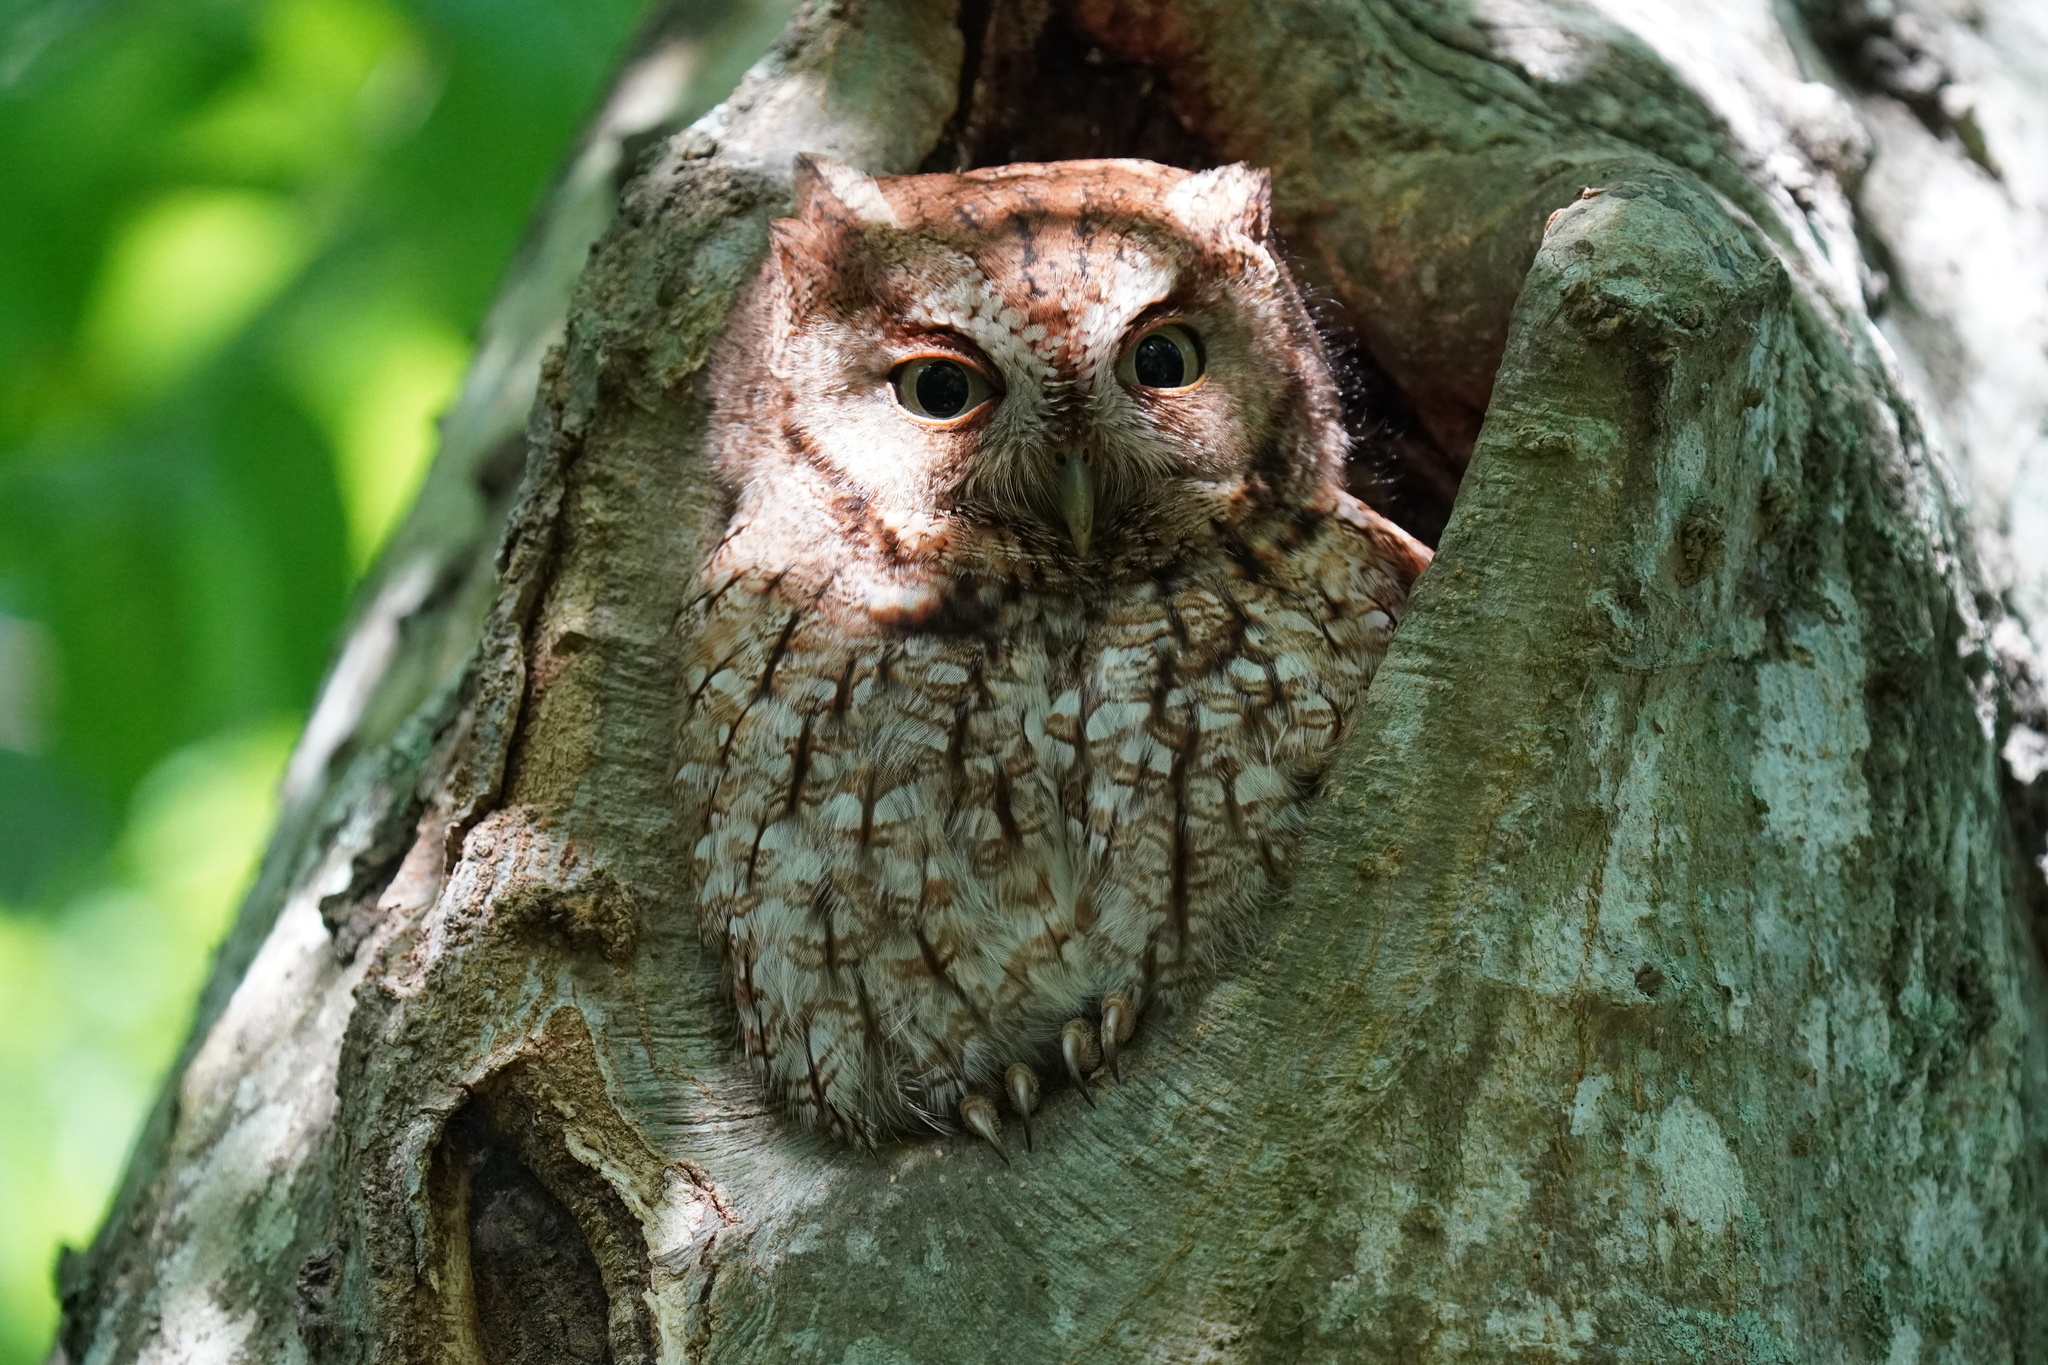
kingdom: Animalia
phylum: Chordata
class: Aves
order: Strigiformes
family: Strigidae
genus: Megascops
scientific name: Megascops asio
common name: Eastern screech-owl
